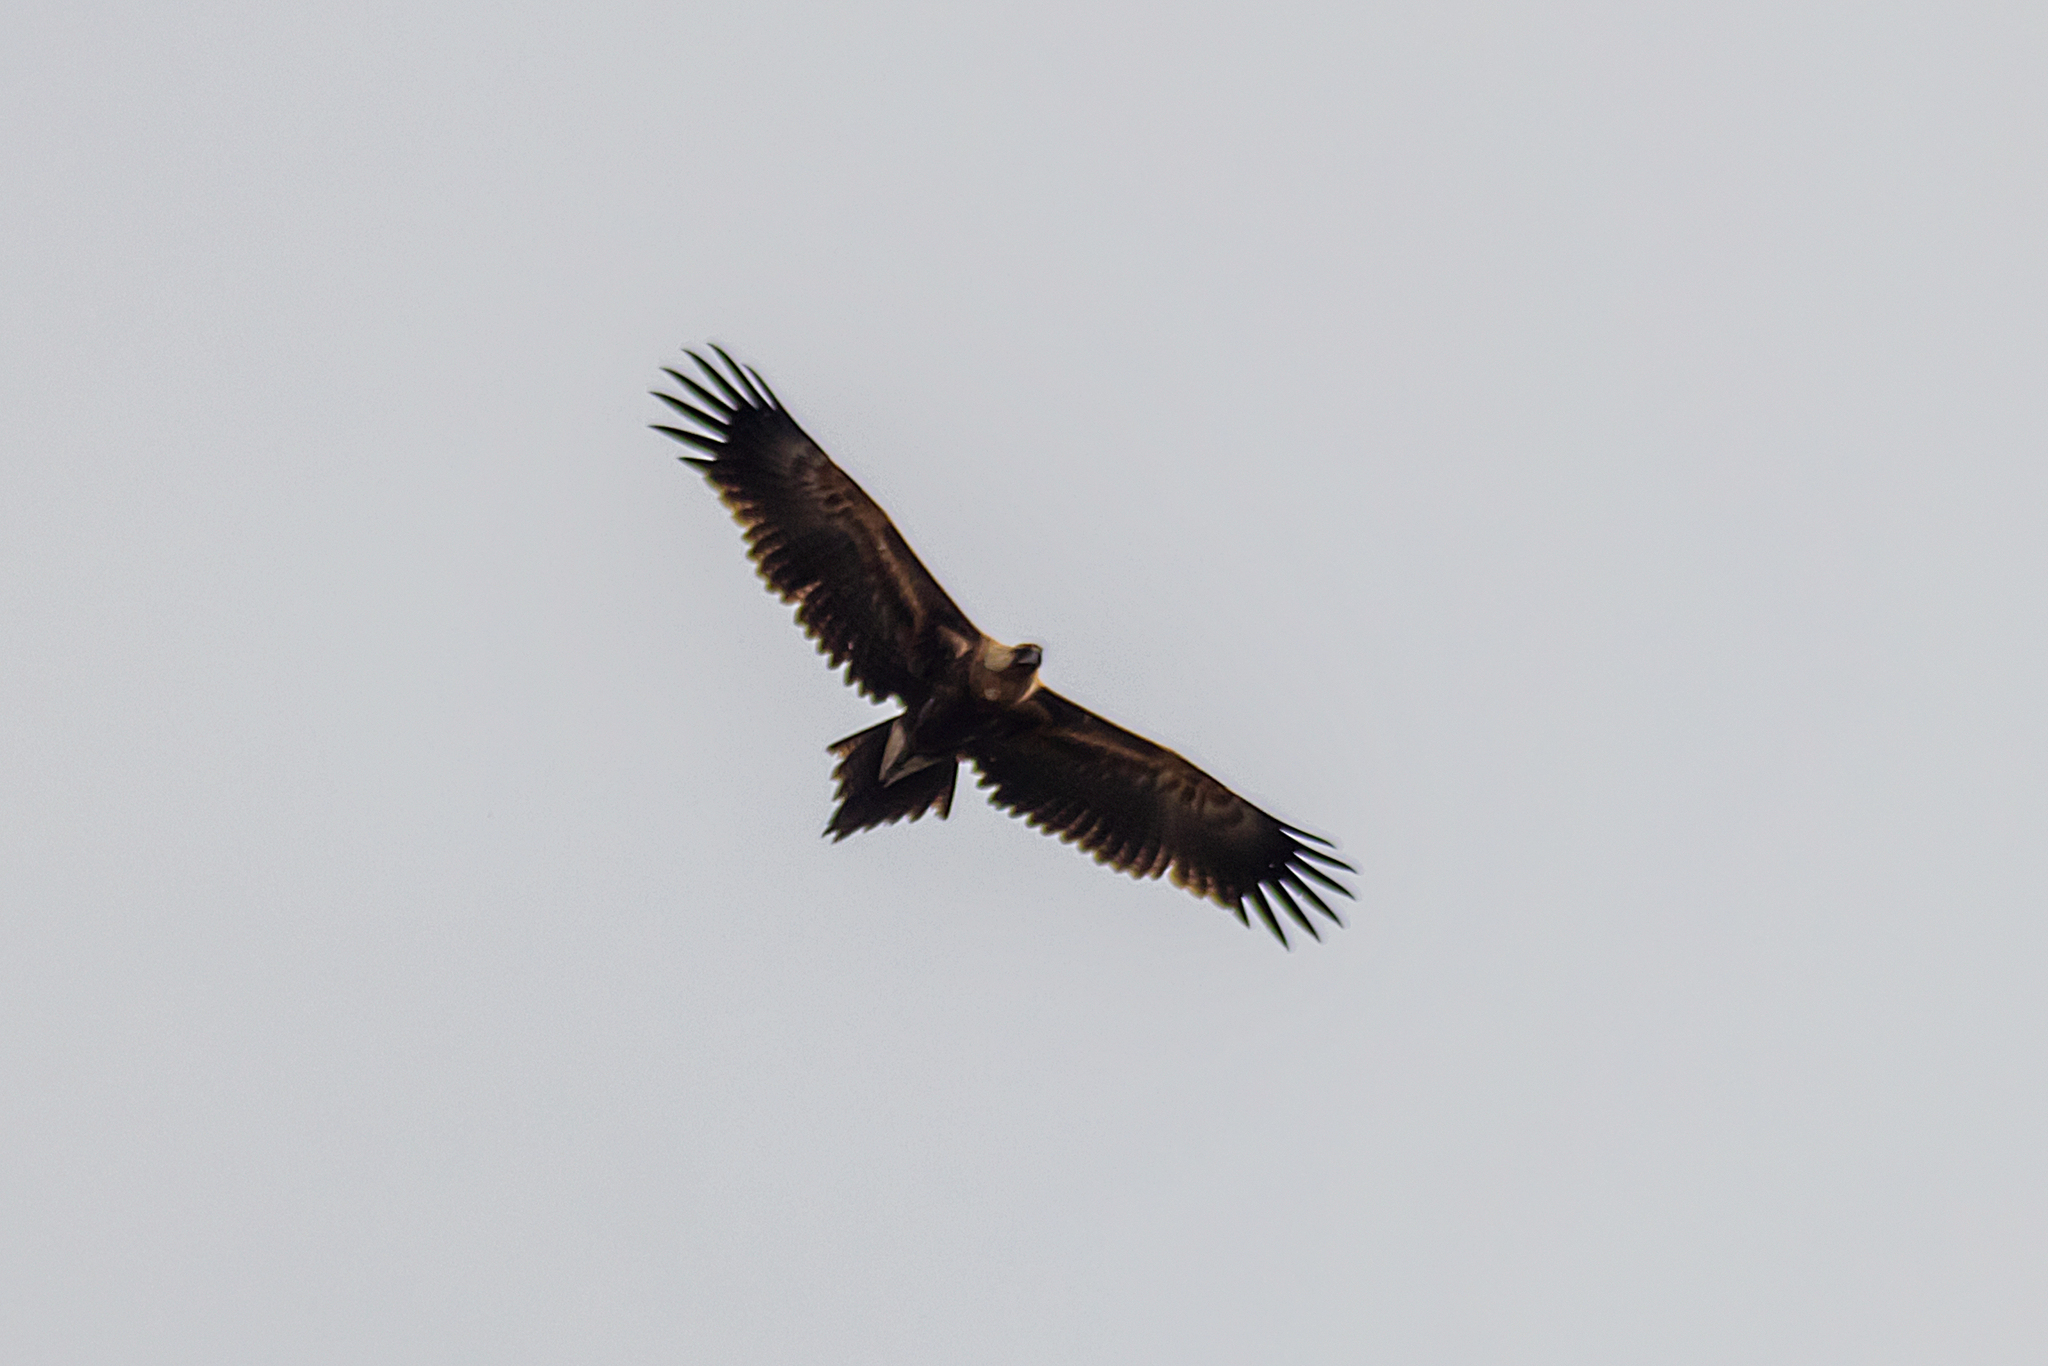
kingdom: Animalia
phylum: Chordata
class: Aves
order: Accipitriformes
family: Accipitridae
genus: Aquila
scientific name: Aquila audax
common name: Wedge-tailed eagle
